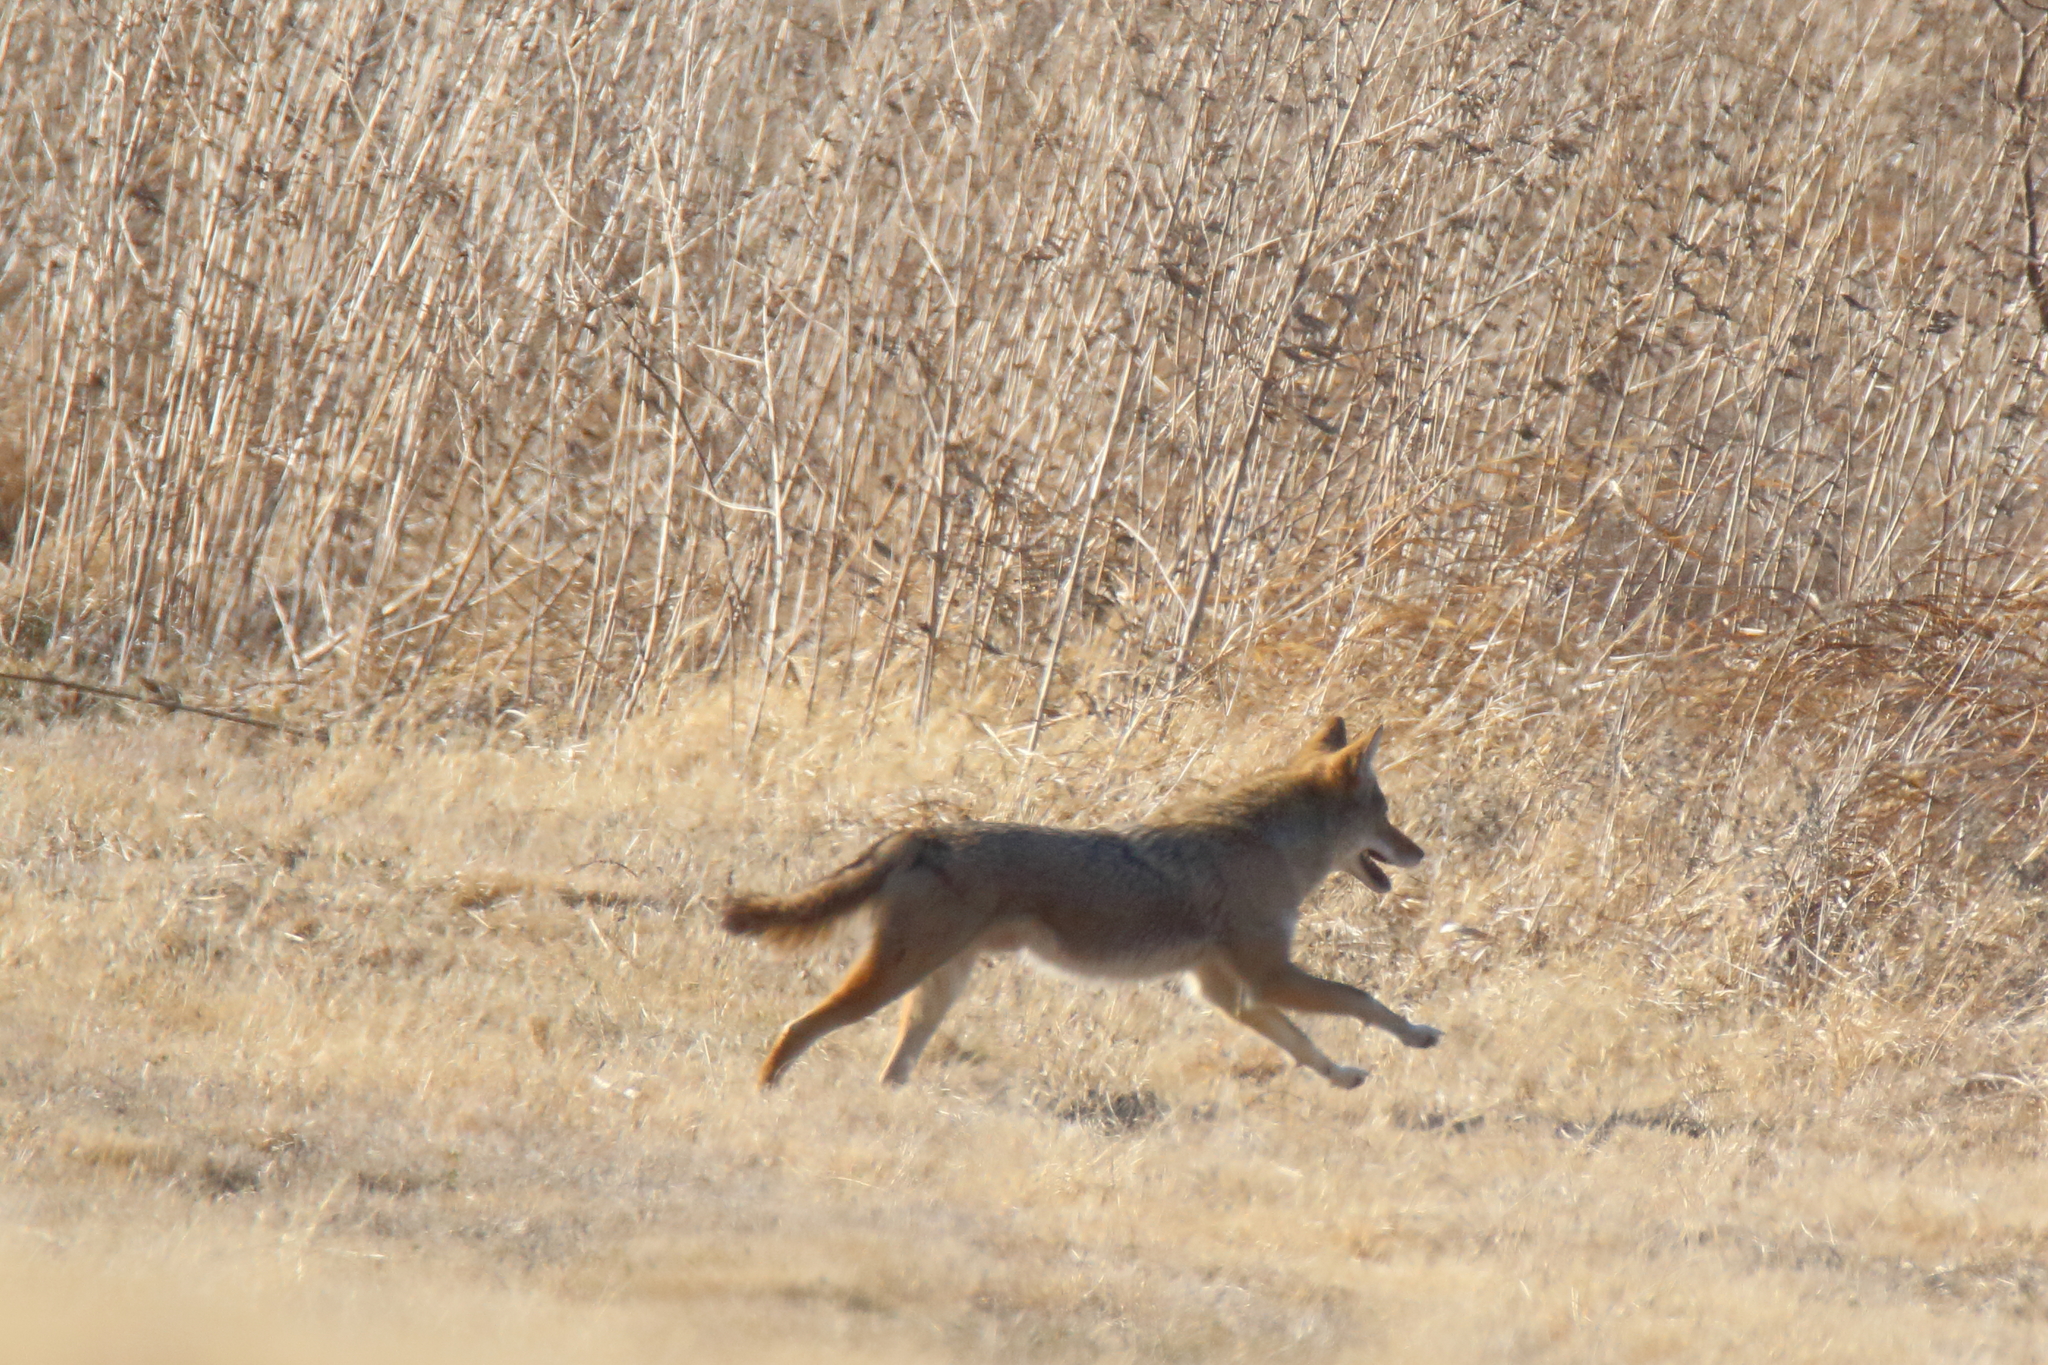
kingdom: Animalia
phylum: Chordata
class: Mammalia
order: Carnivora
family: Canidae
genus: Canis
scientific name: Canis latrans
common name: Coyote
